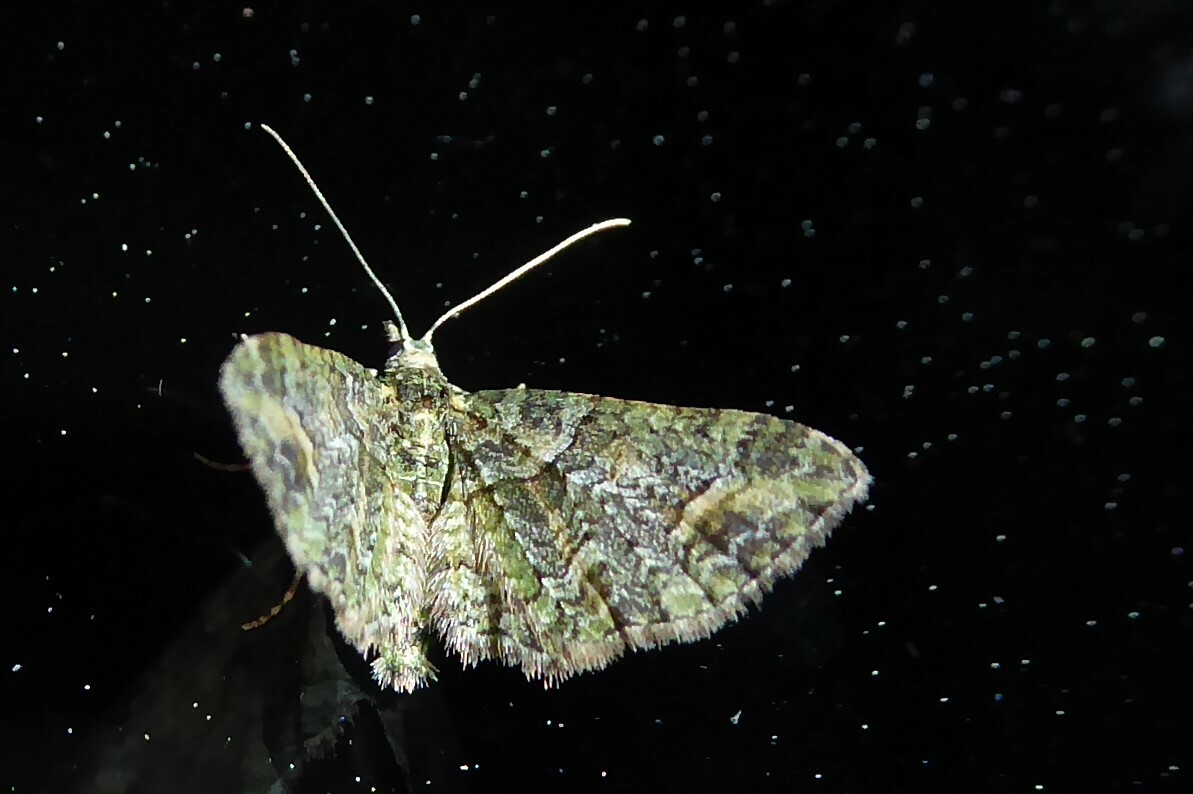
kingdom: Animalia
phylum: Arthropoda
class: Insecta
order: Lepidoptera
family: Geometridae
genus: Idaea
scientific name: Idaea mutanda
